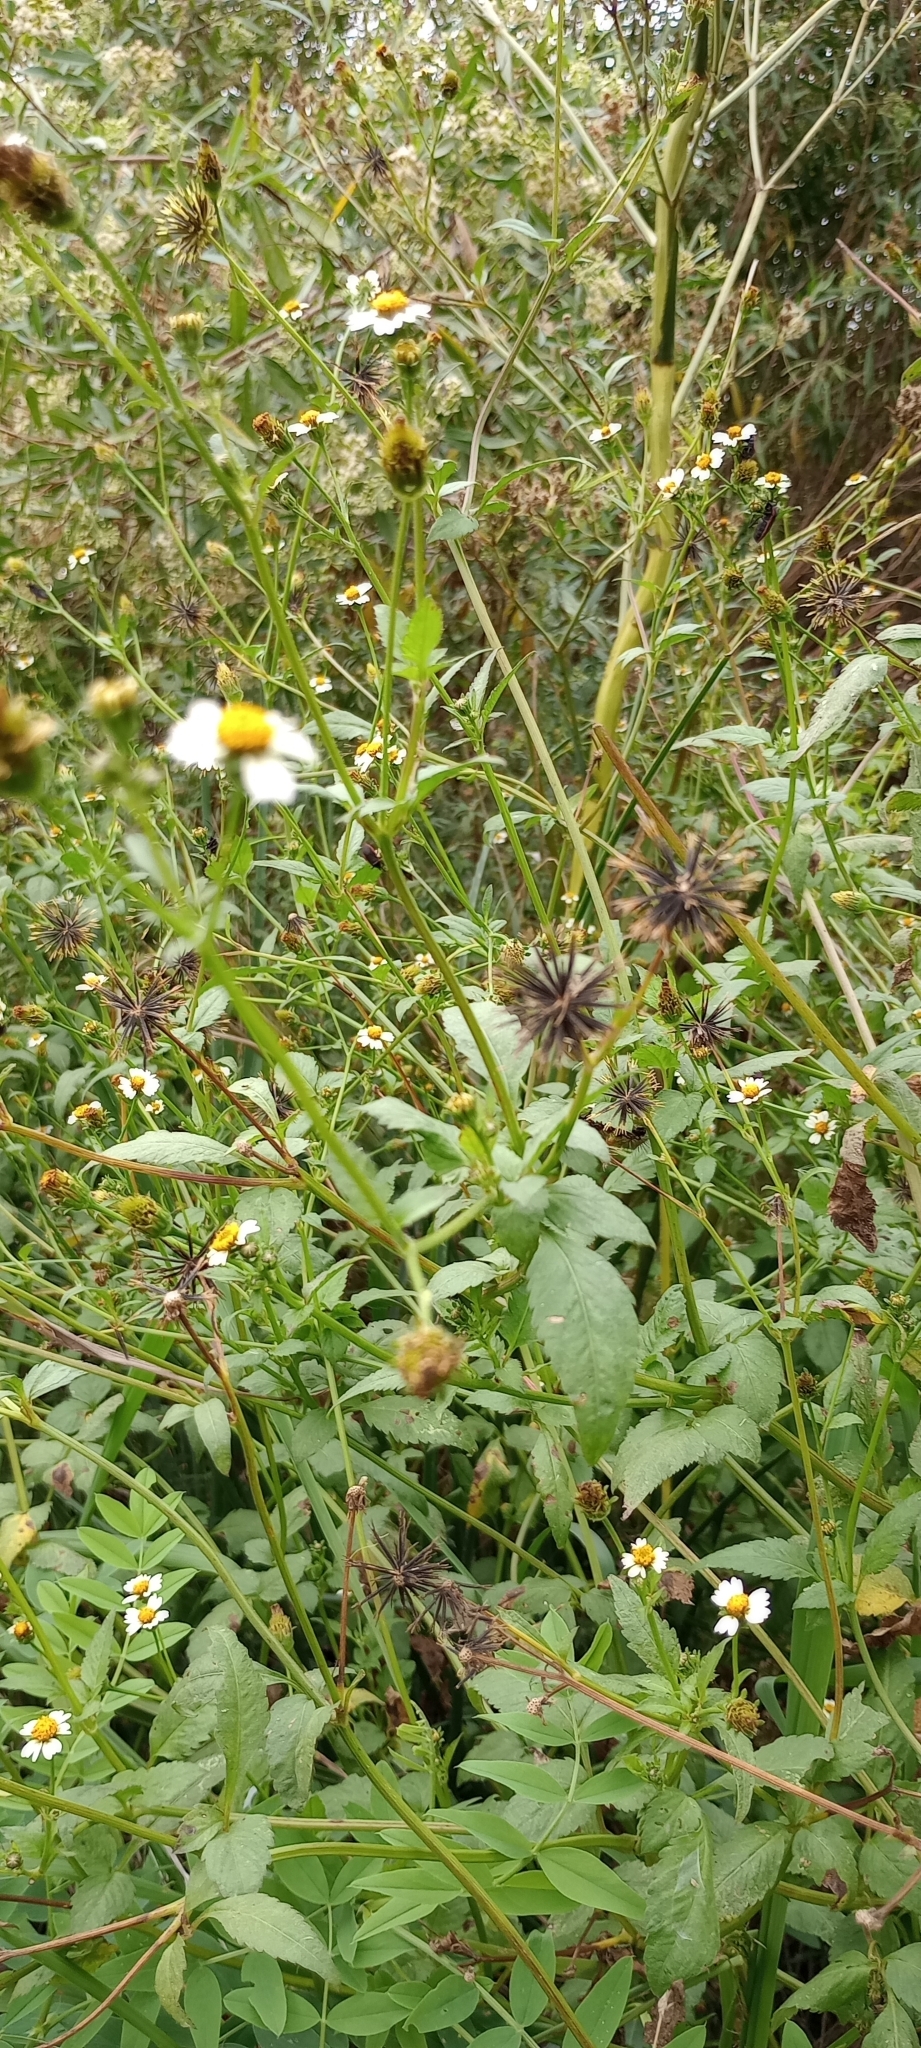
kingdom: Plantae
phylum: Tracheophyta
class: Magnoliopsida
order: Asterales
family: Asteraceae
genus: Bidens
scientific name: Bidens pilosa
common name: Black-jack
